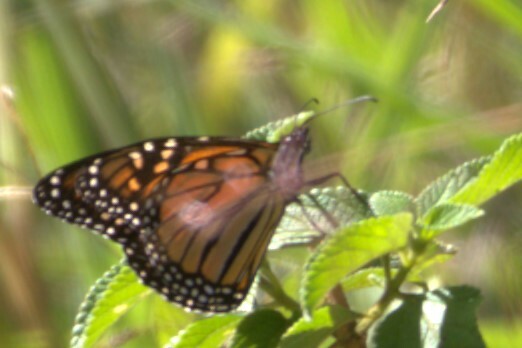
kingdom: Animalia
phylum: Arthropoda
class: Insecta
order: Lepidoptera
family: Nymphalidae
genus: Danaus
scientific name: Danaus plexippus
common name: Monarch
